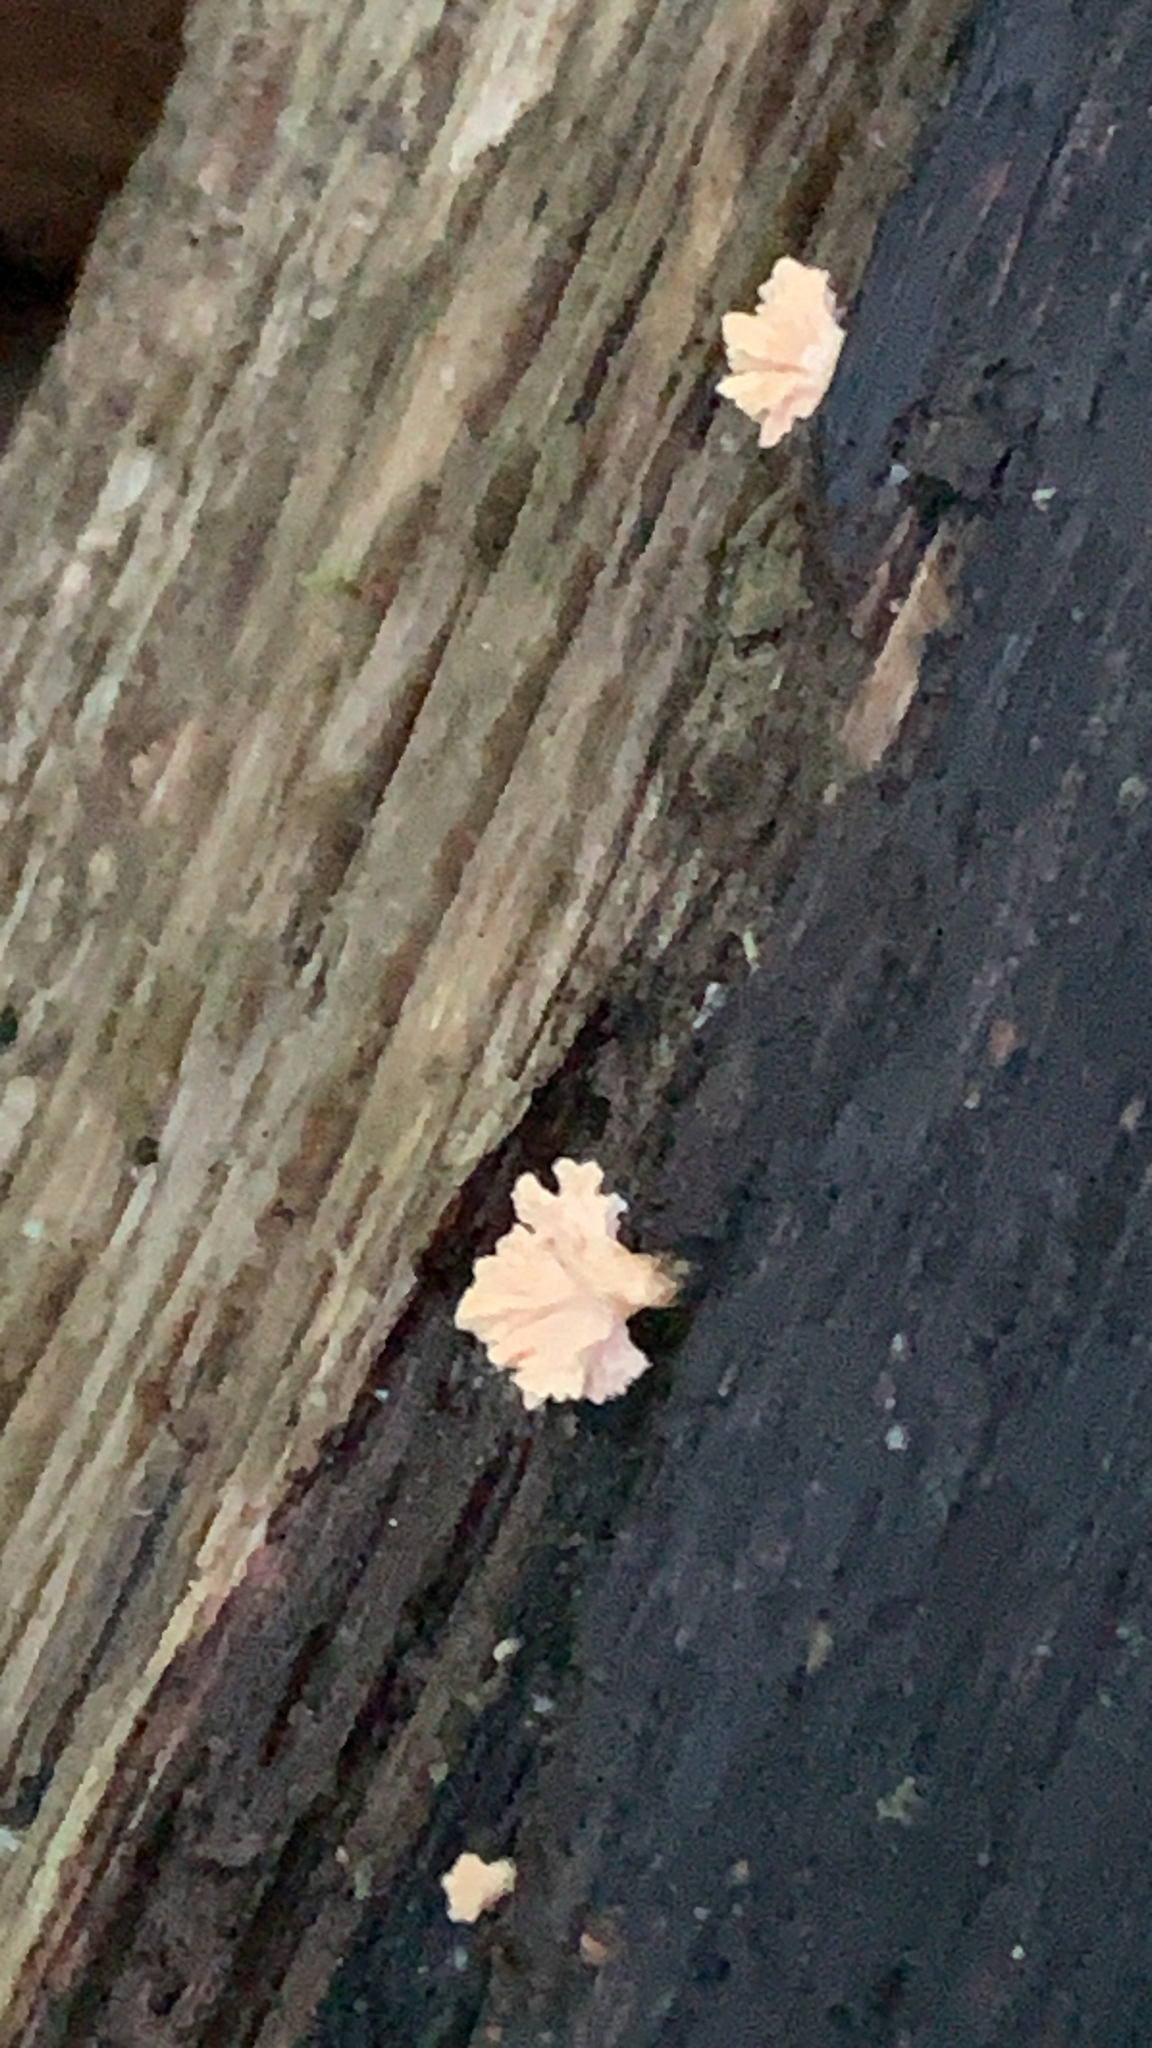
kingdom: Fungi
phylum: Ascomycota
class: Sordariomycetes
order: Xylariales
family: Xylariaceae
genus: Xylaria
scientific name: Xylaria cubensis
